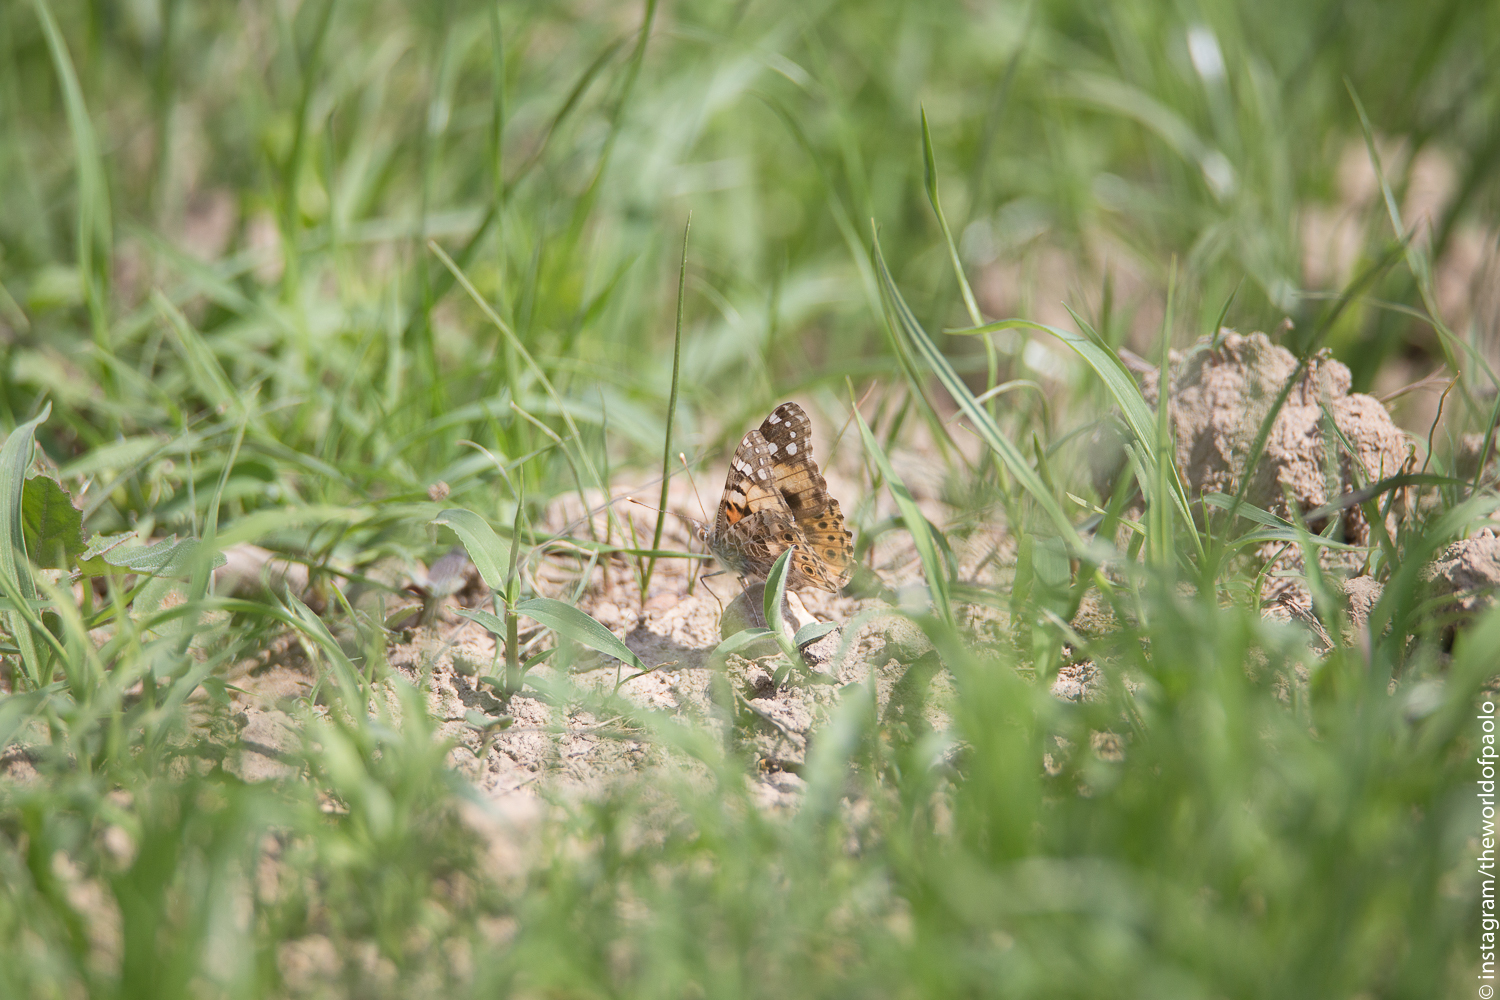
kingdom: Animalia
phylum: Arthropoda
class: Insecta
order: Lepidoptera
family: Nymphalidae
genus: Vanessa
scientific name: Vanessa cardui
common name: Painted lady
